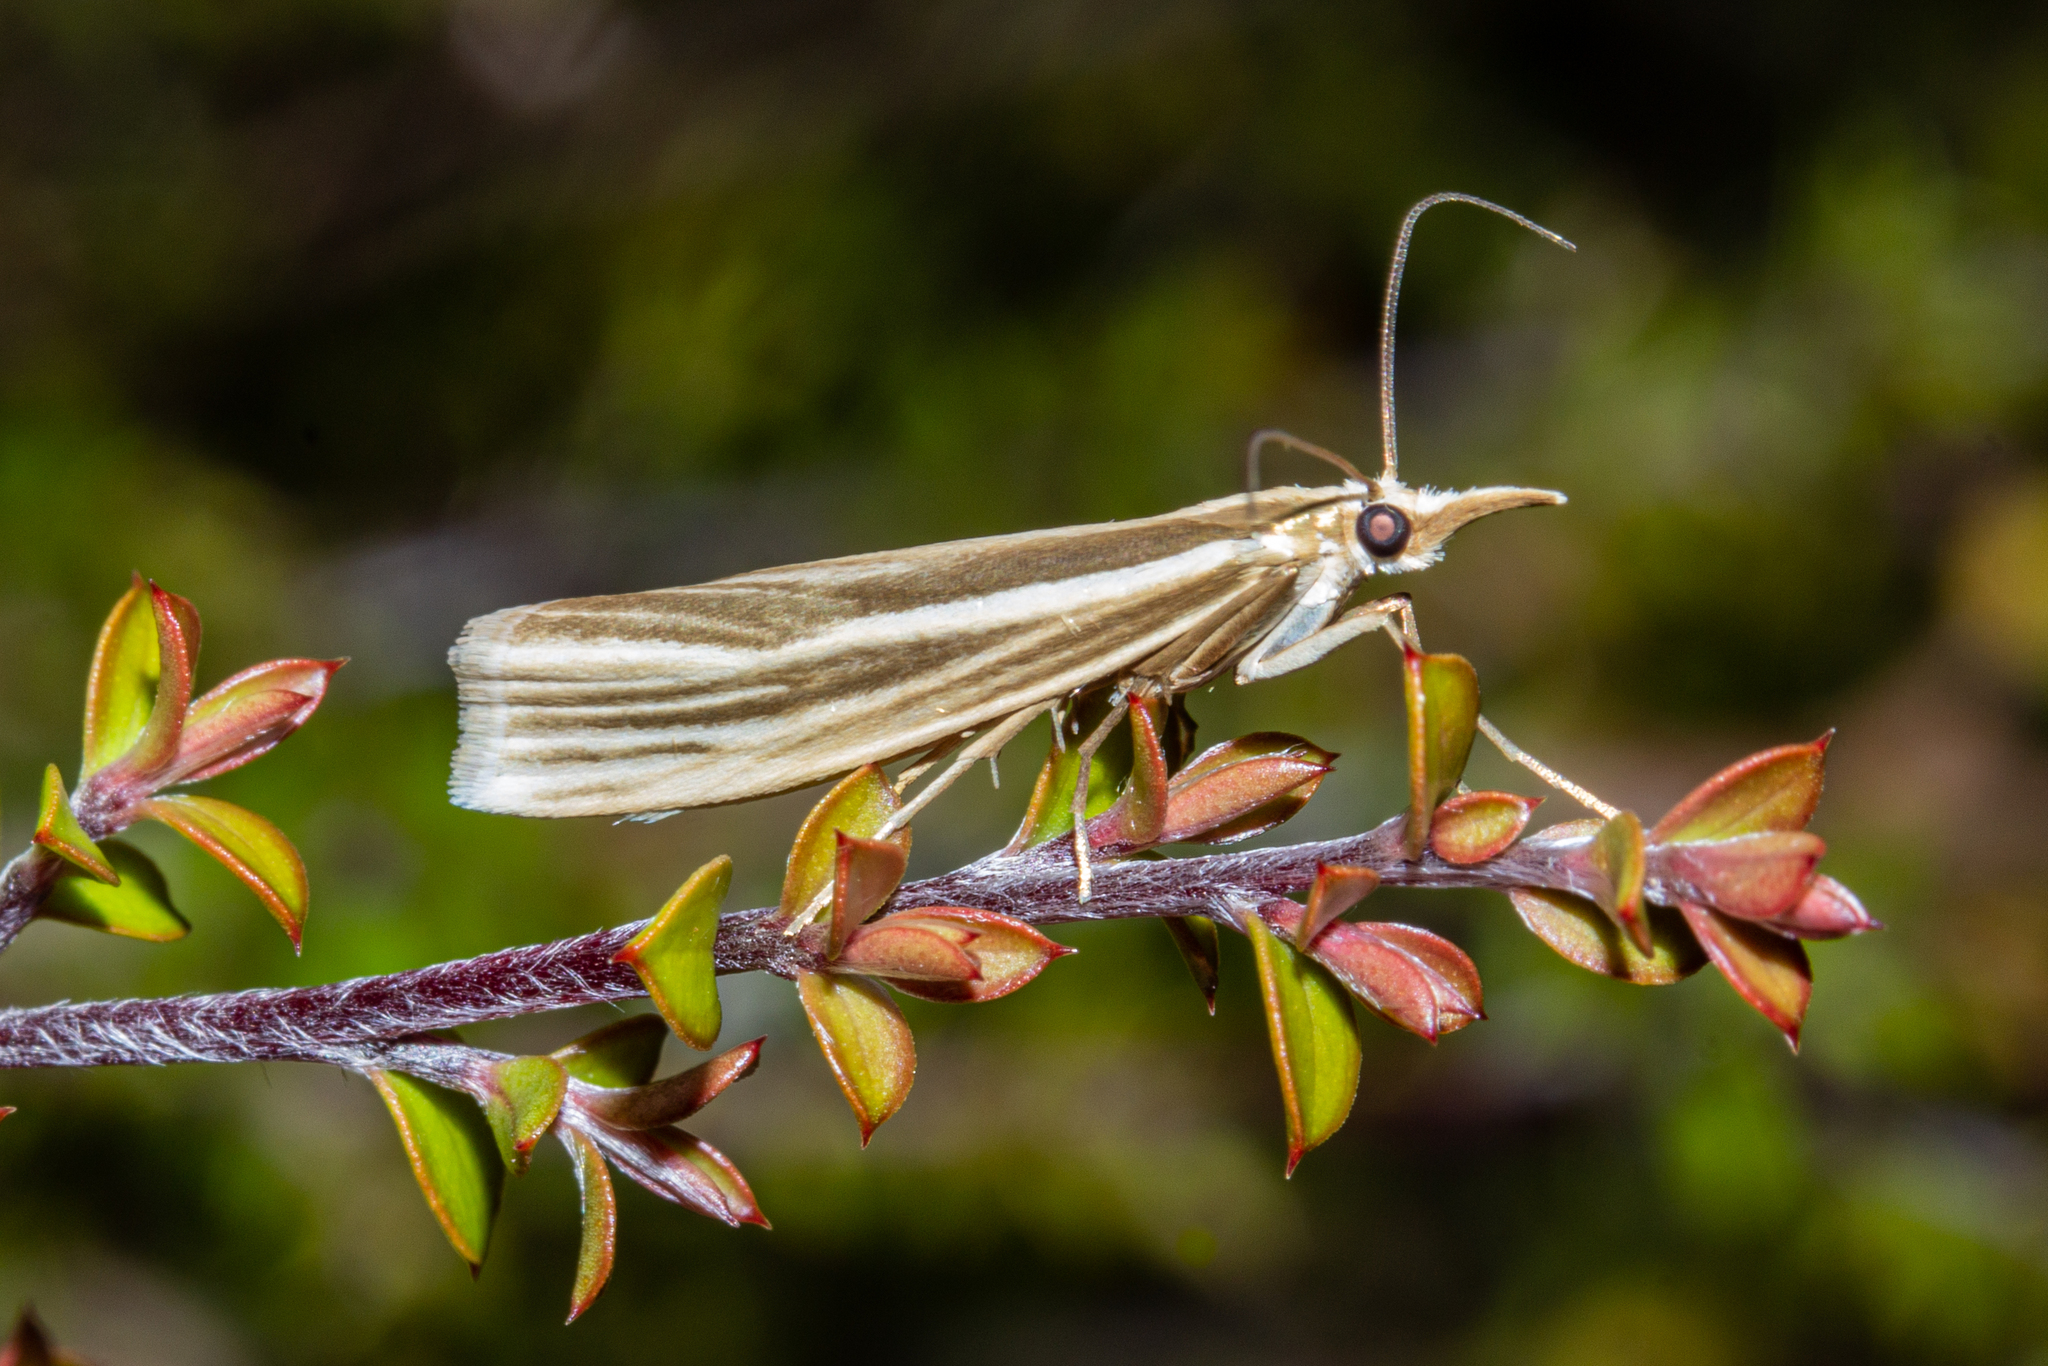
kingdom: Animalia
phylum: Arthropoda
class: Insecta
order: Lepidoptera
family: Crambidae
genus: Orocrambus
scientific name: Orocrambus ramosellus
